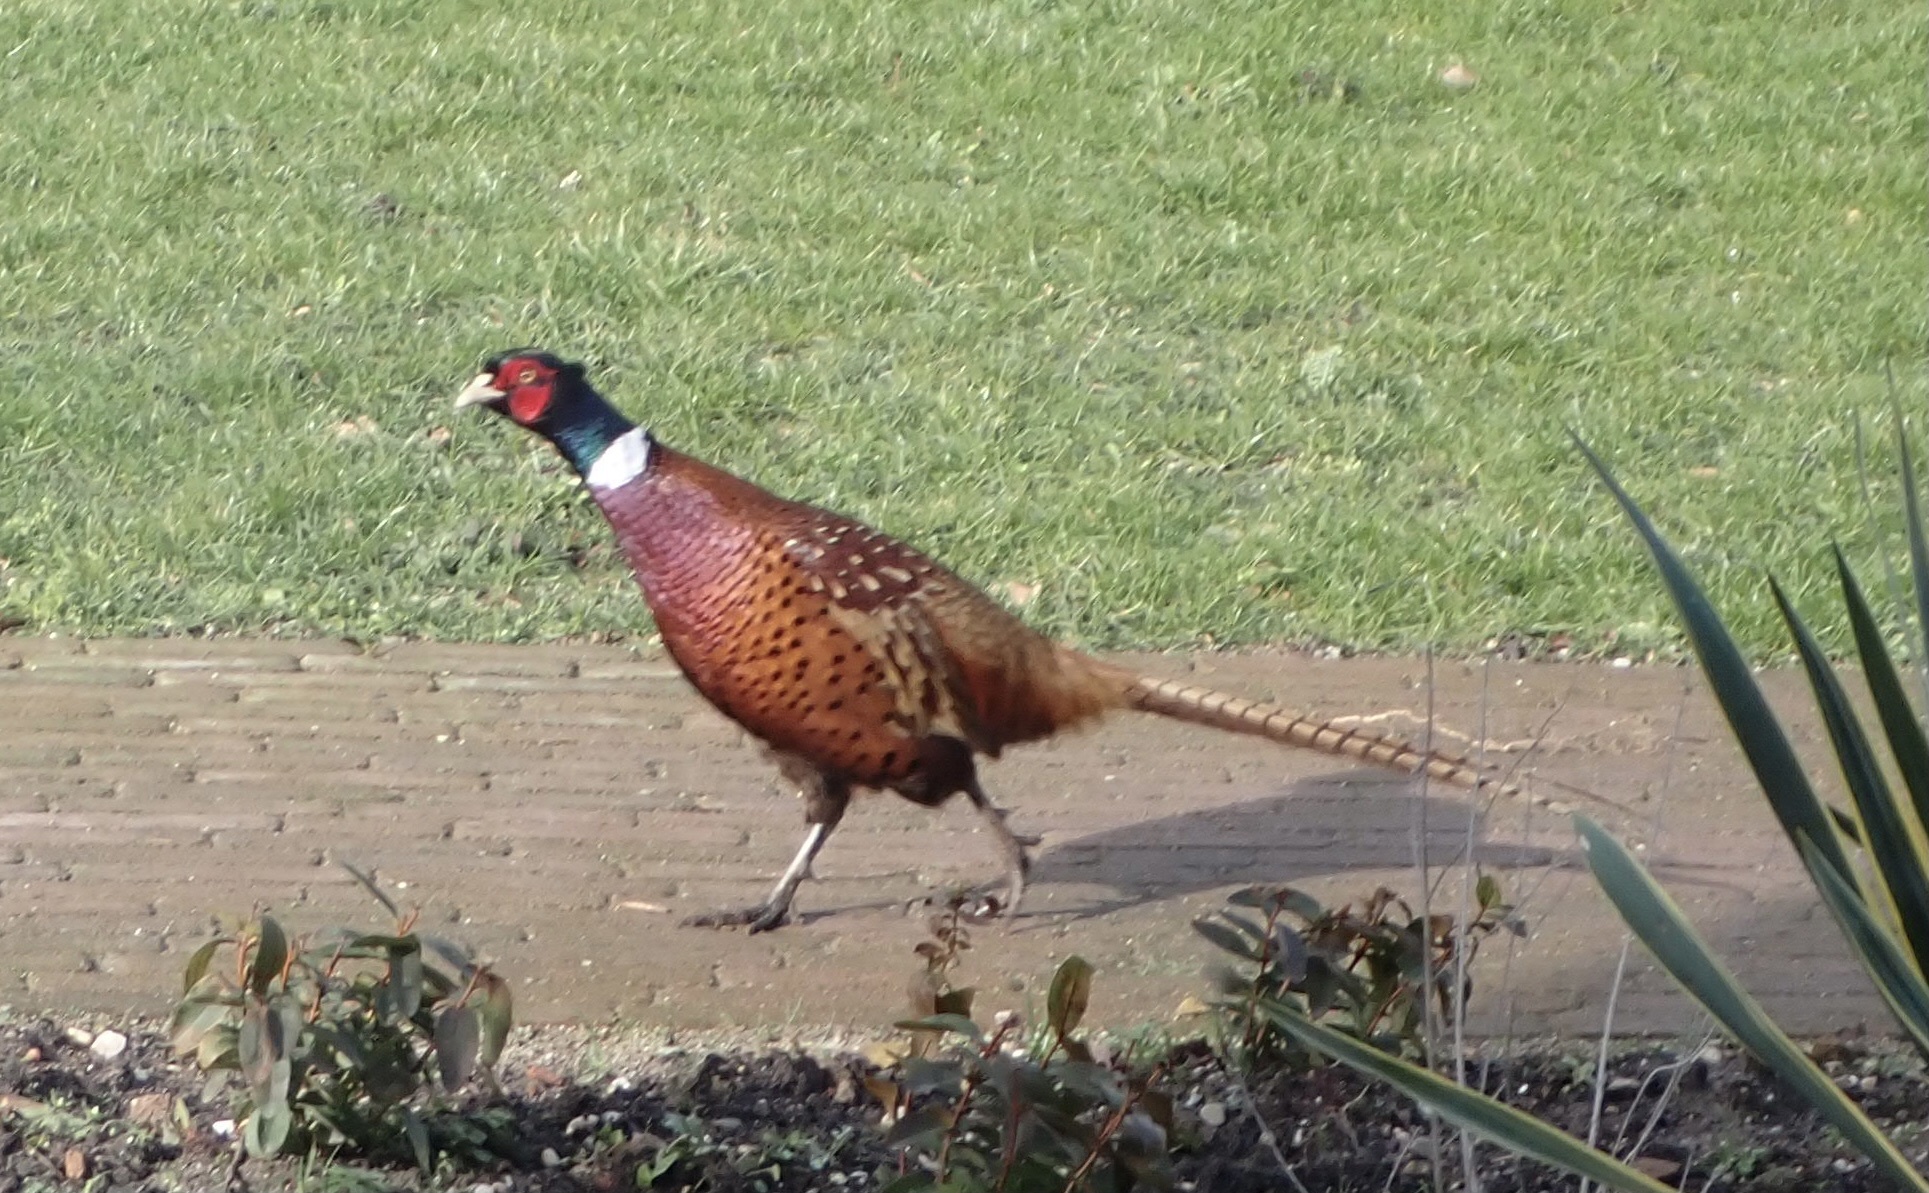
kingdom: Animalia
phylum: Chordata
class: Aves
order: Galliformes
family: Phasianidae
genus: Phasianus
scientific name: Phasianus colchicus
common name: Common pheasant
